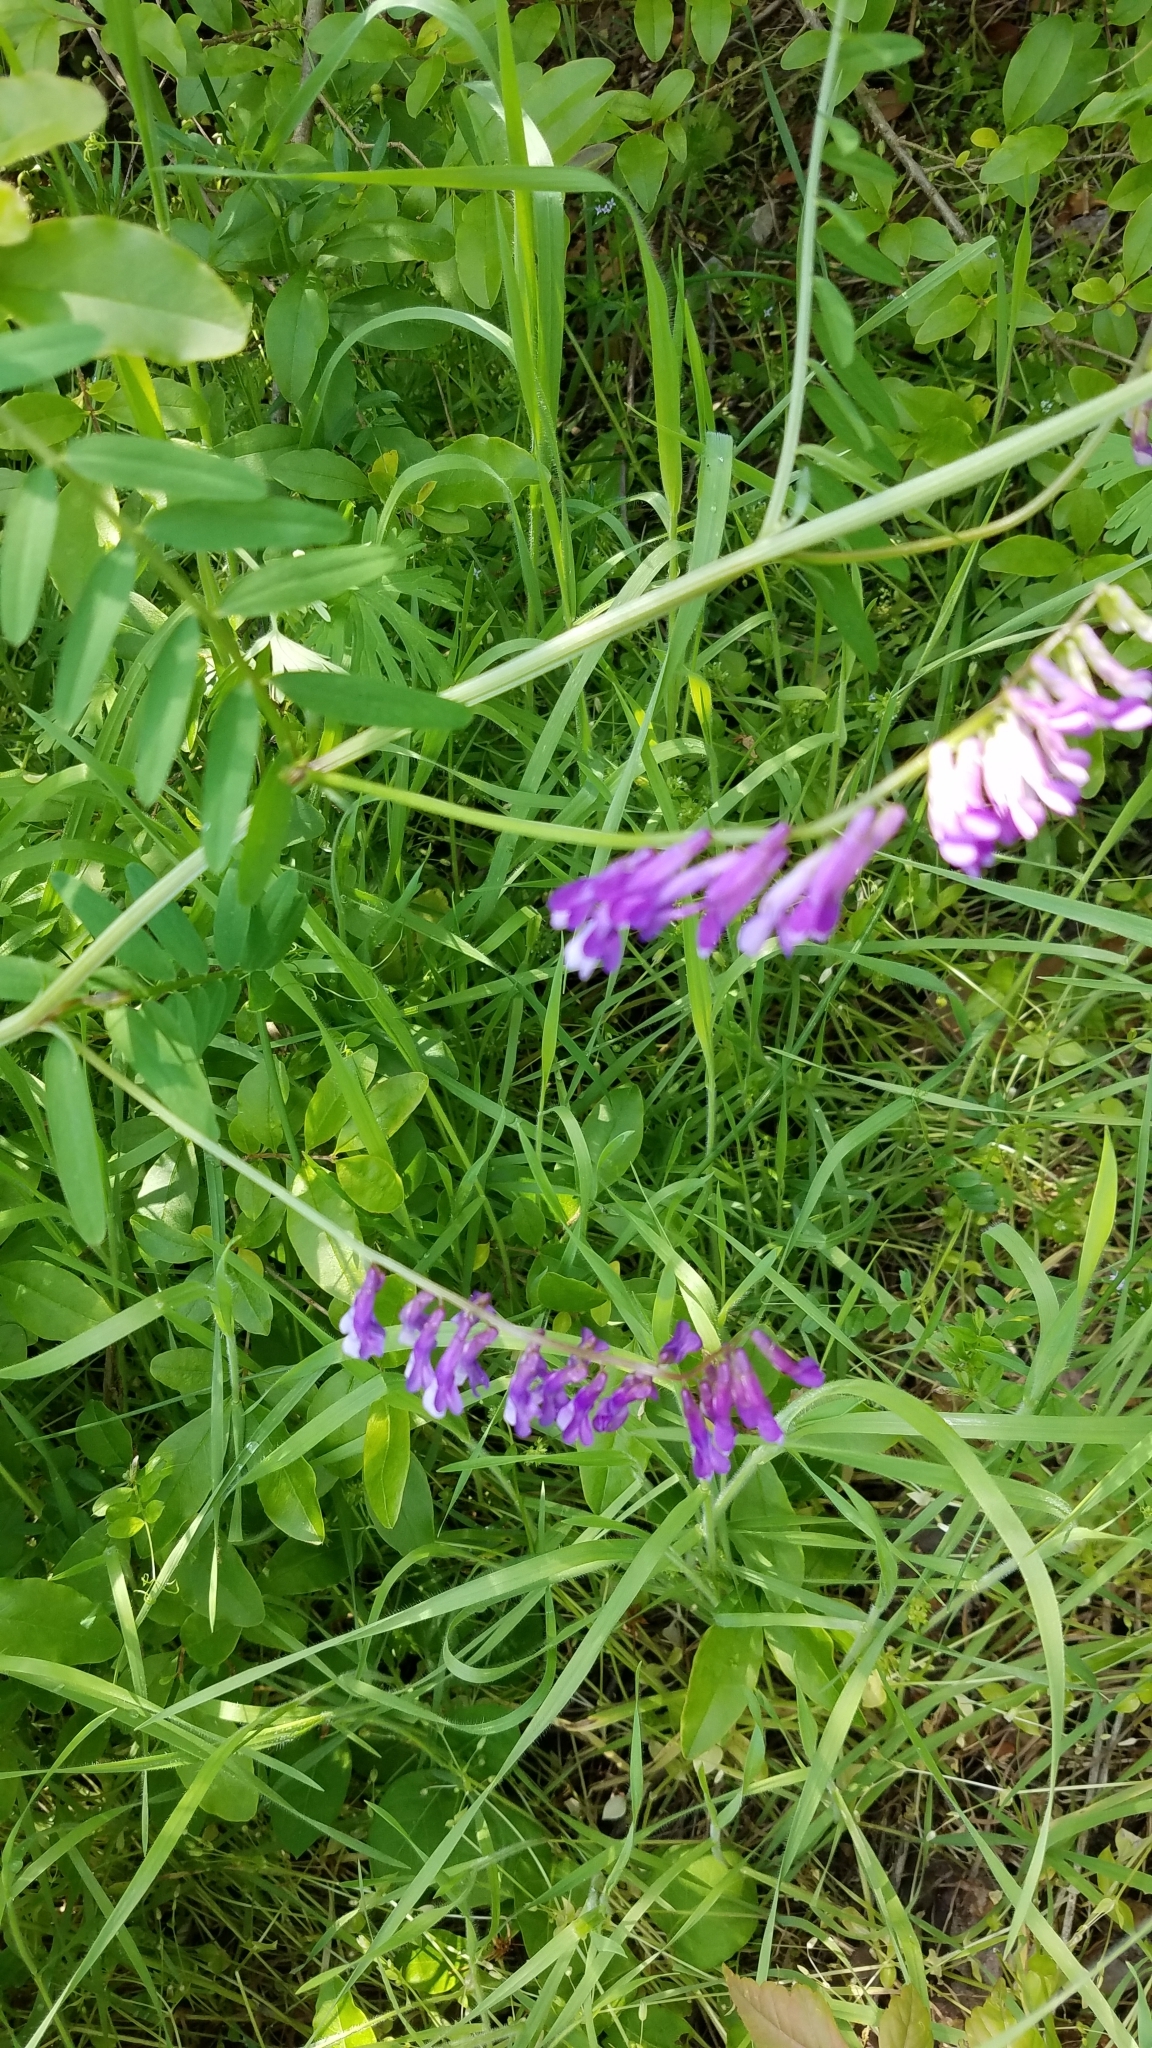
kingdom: Plantae
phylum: Tracheophyta
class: Magnoliopsida
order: Fabales
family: Fabaceae
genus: Vicia
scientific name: Vicia villosa
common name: Fodder vetch
